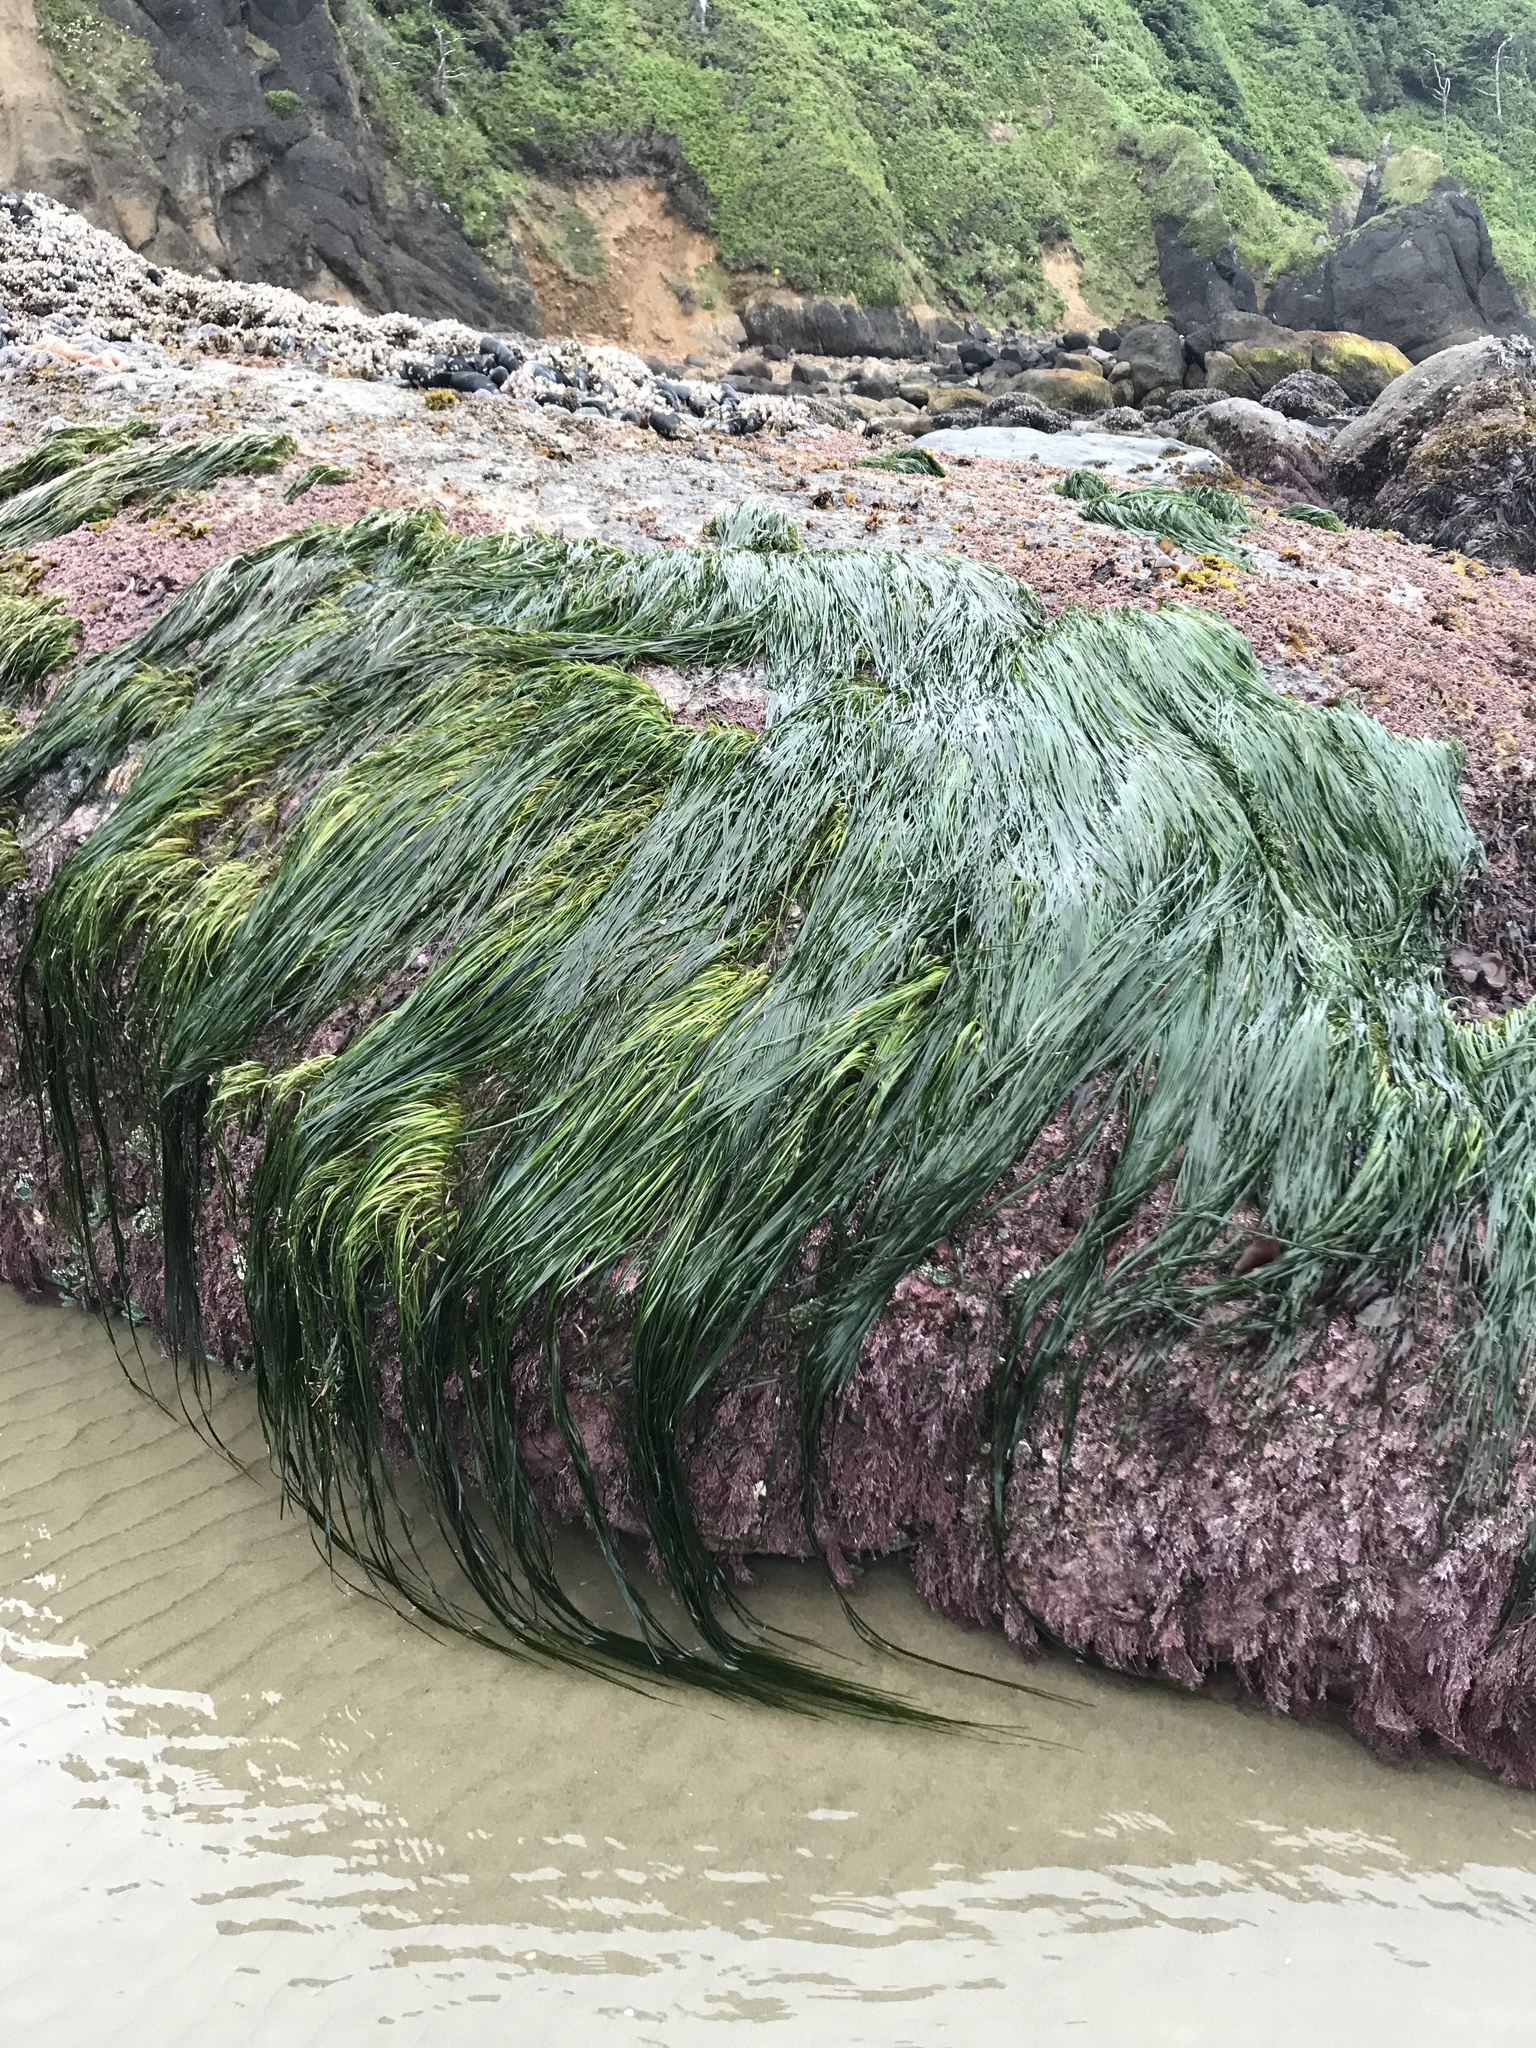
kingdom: Plantae
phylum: Tracheophyta
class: Liliopsida
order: Alismatales
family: Zosteraceae
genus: Phyllospadix
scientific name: Phyllospadix torreyi
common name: Surfgrass
